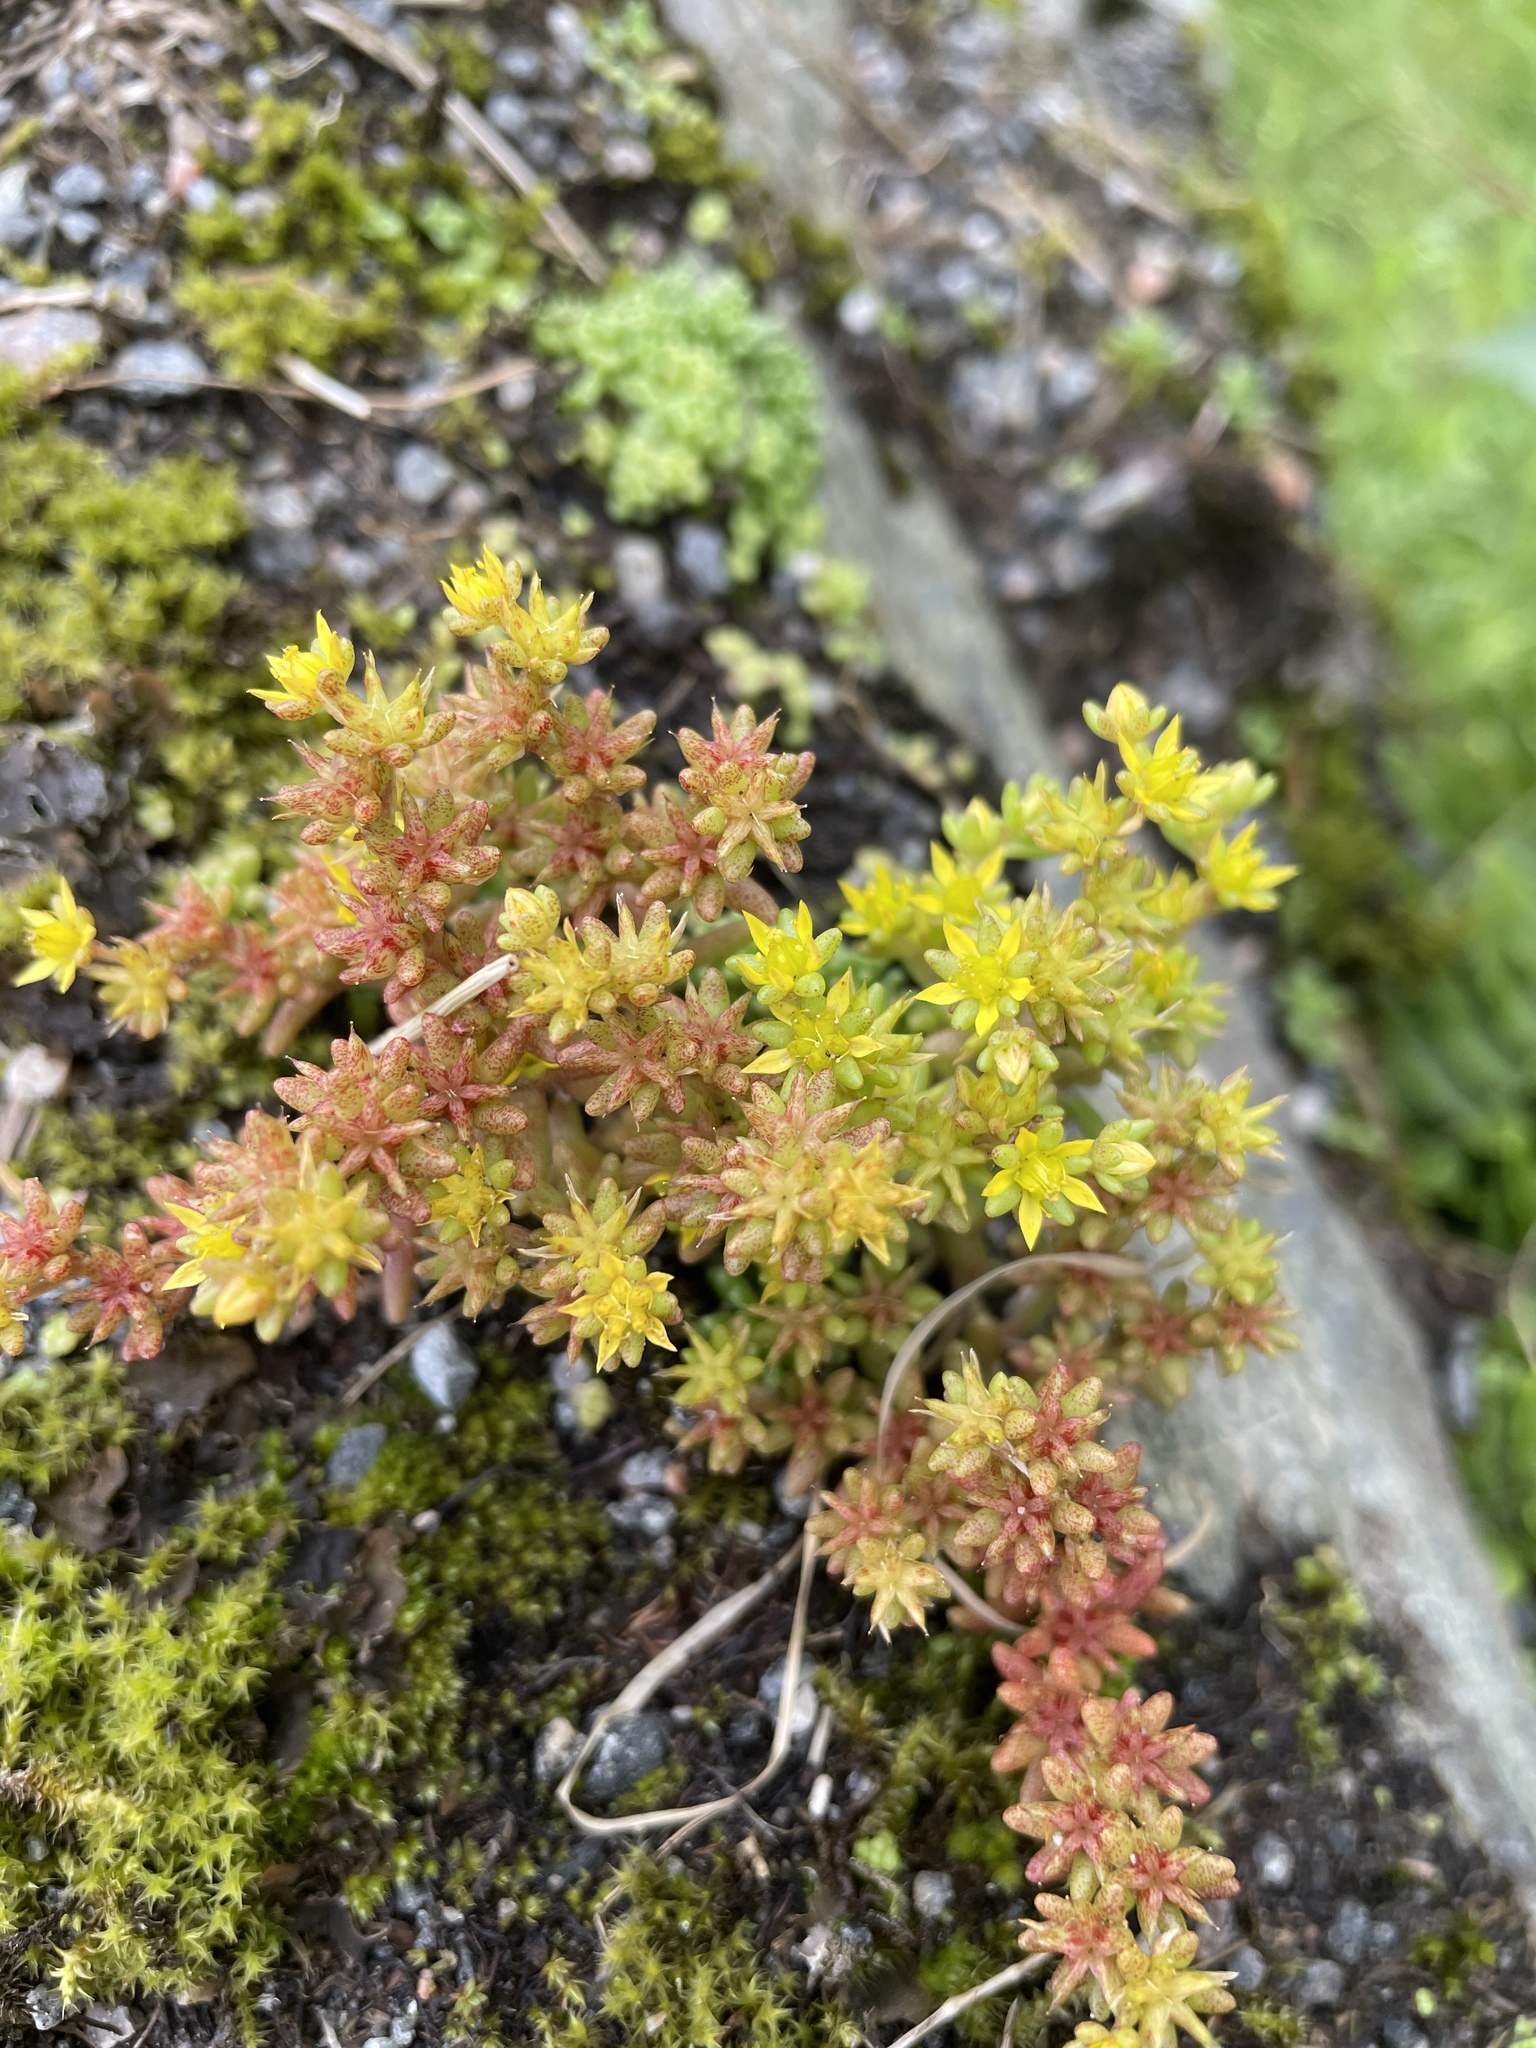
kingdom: Plantae
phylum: Tracheophyta
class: Magnoliopsida
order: Saxifragales
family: Crassulaceae
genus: Sedum
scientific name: Sedum annuum
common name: Annual stonecrop
